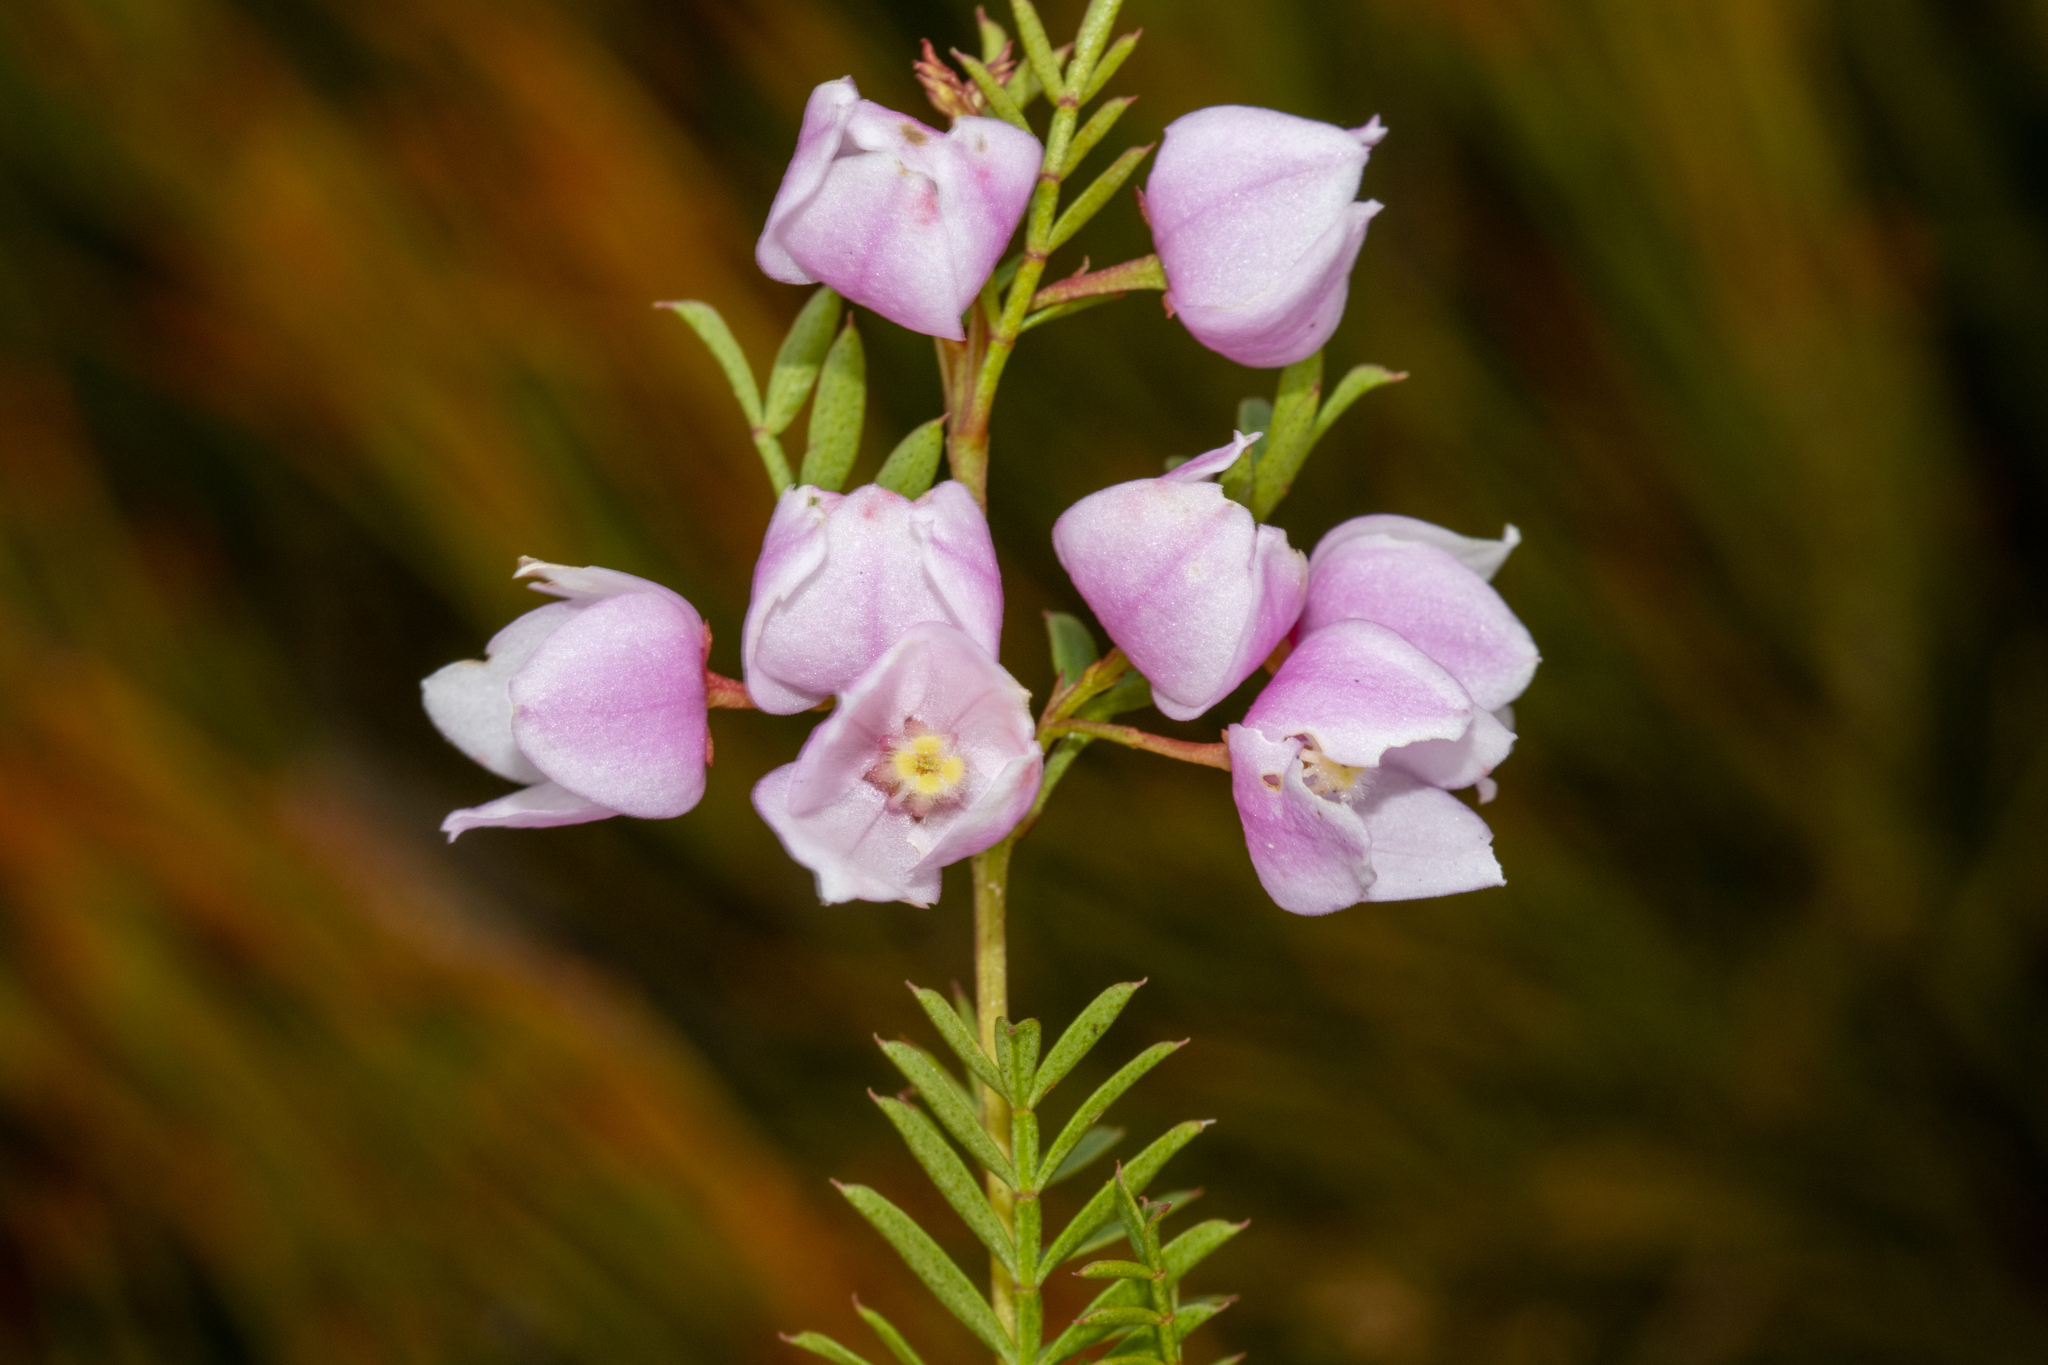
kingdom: Plantae
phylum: Tracheophyta
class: Magnoliopsida
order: Sapindales
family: Rutaceae
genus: Boronia
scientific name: Boronia floribunda
